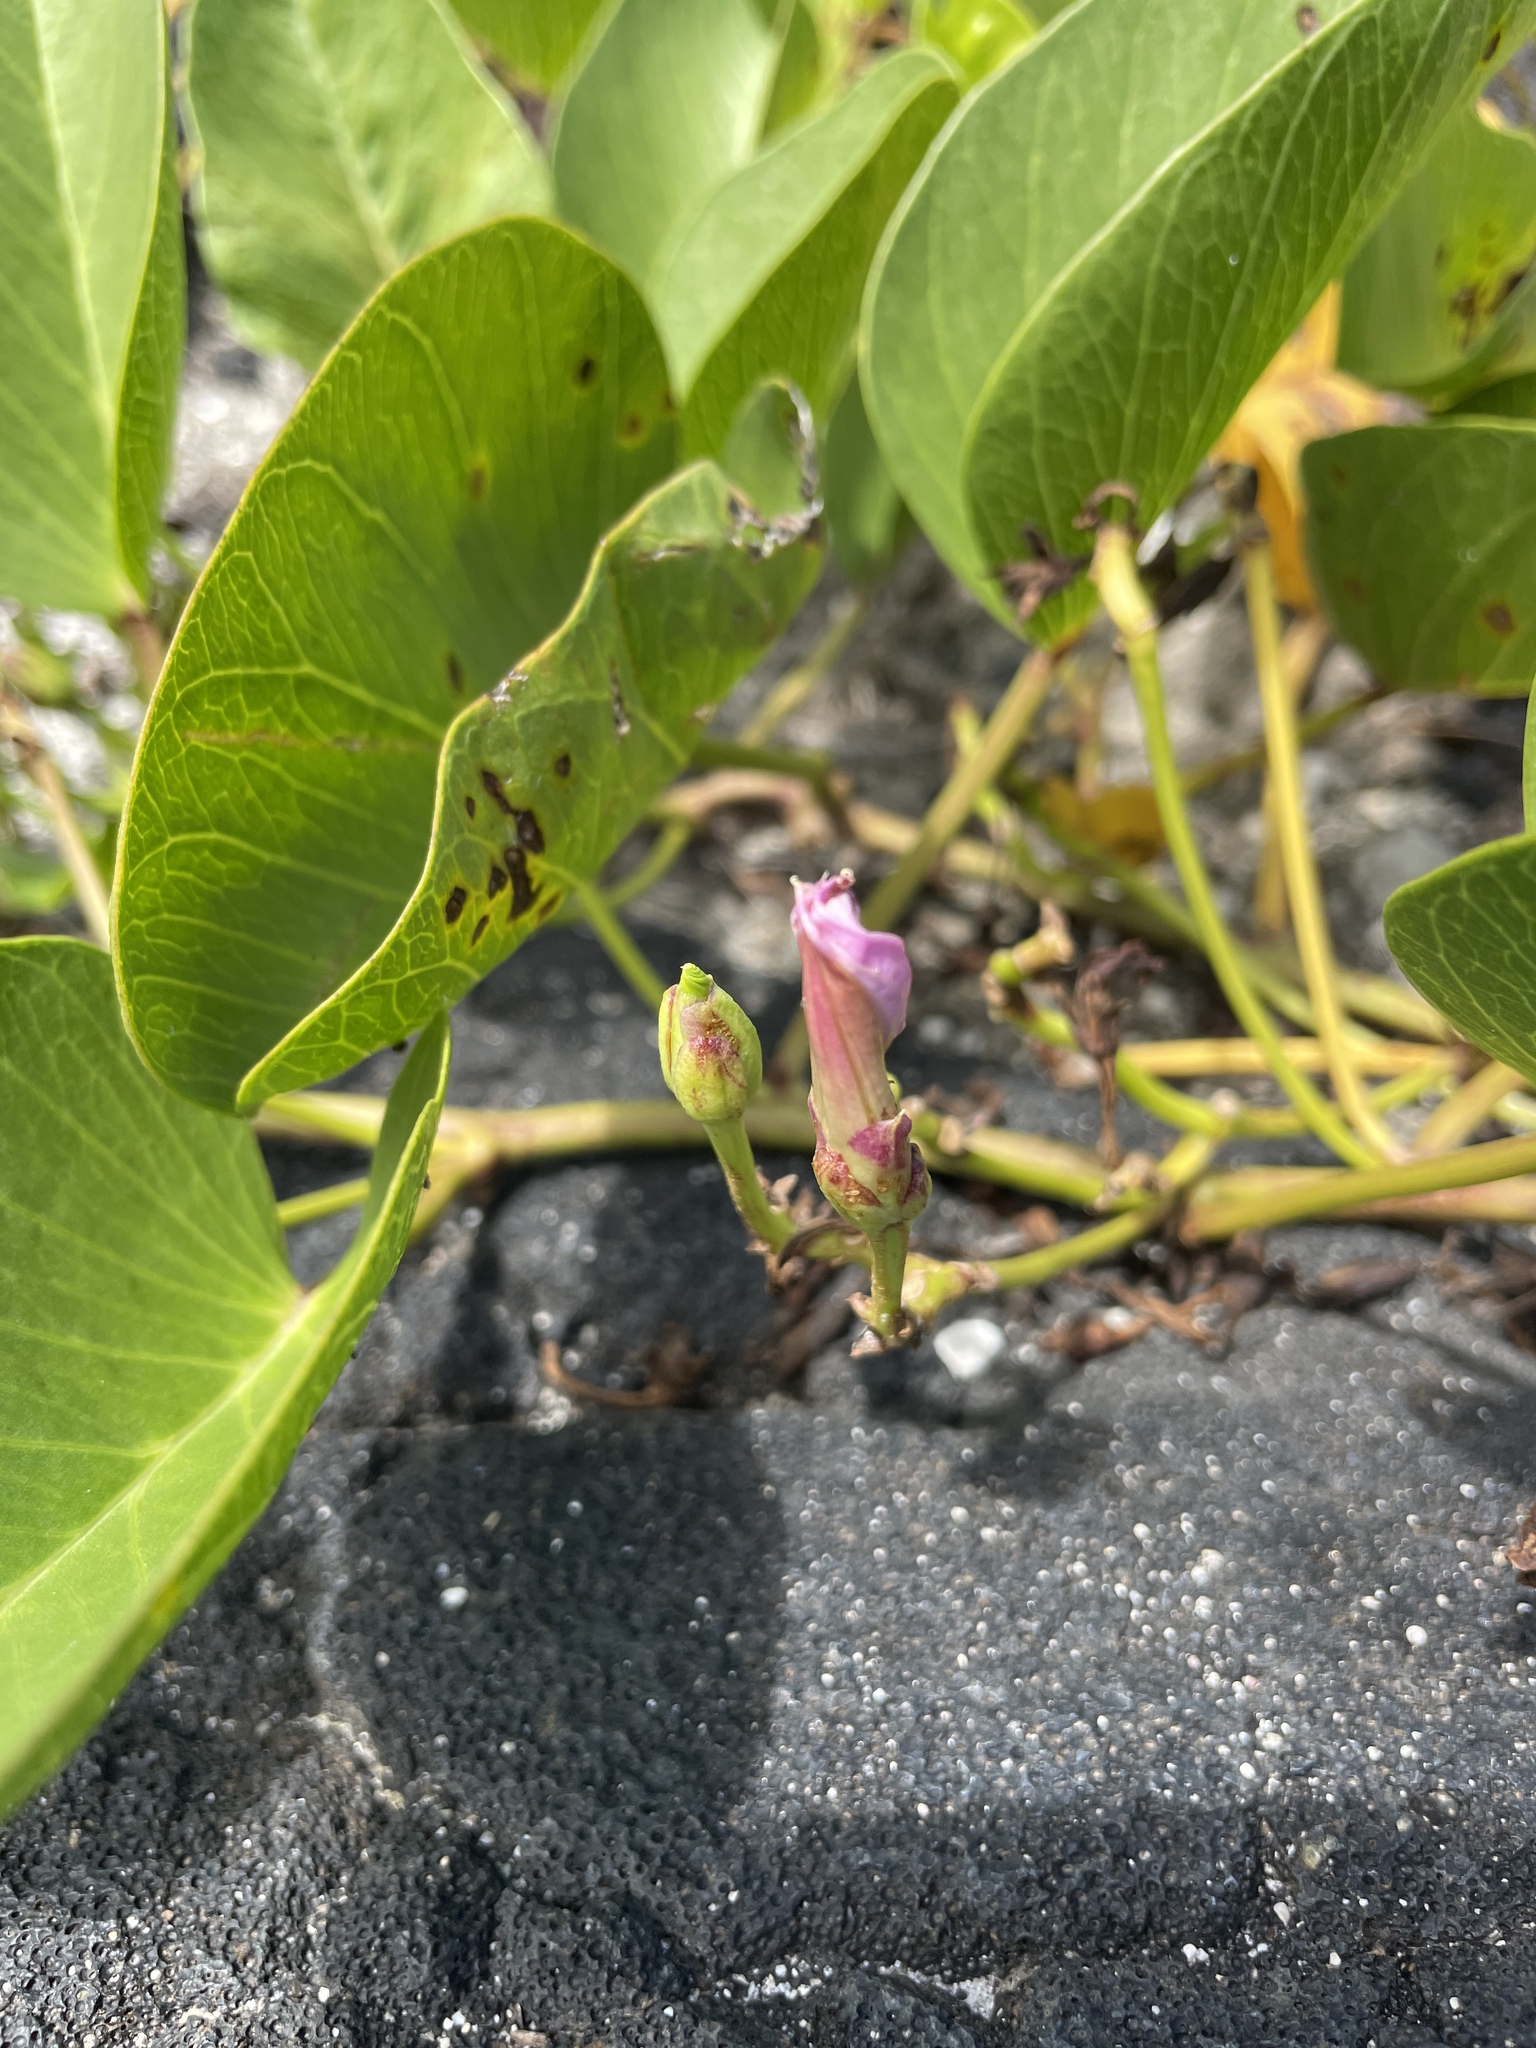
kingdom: Plantae
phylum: Tracheophyta
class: Magnoliopsida
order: Solanales
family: Convolvulaceae
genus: Ipomoea
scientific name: Ipomoea pes-caprae
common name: Beach morning glory
